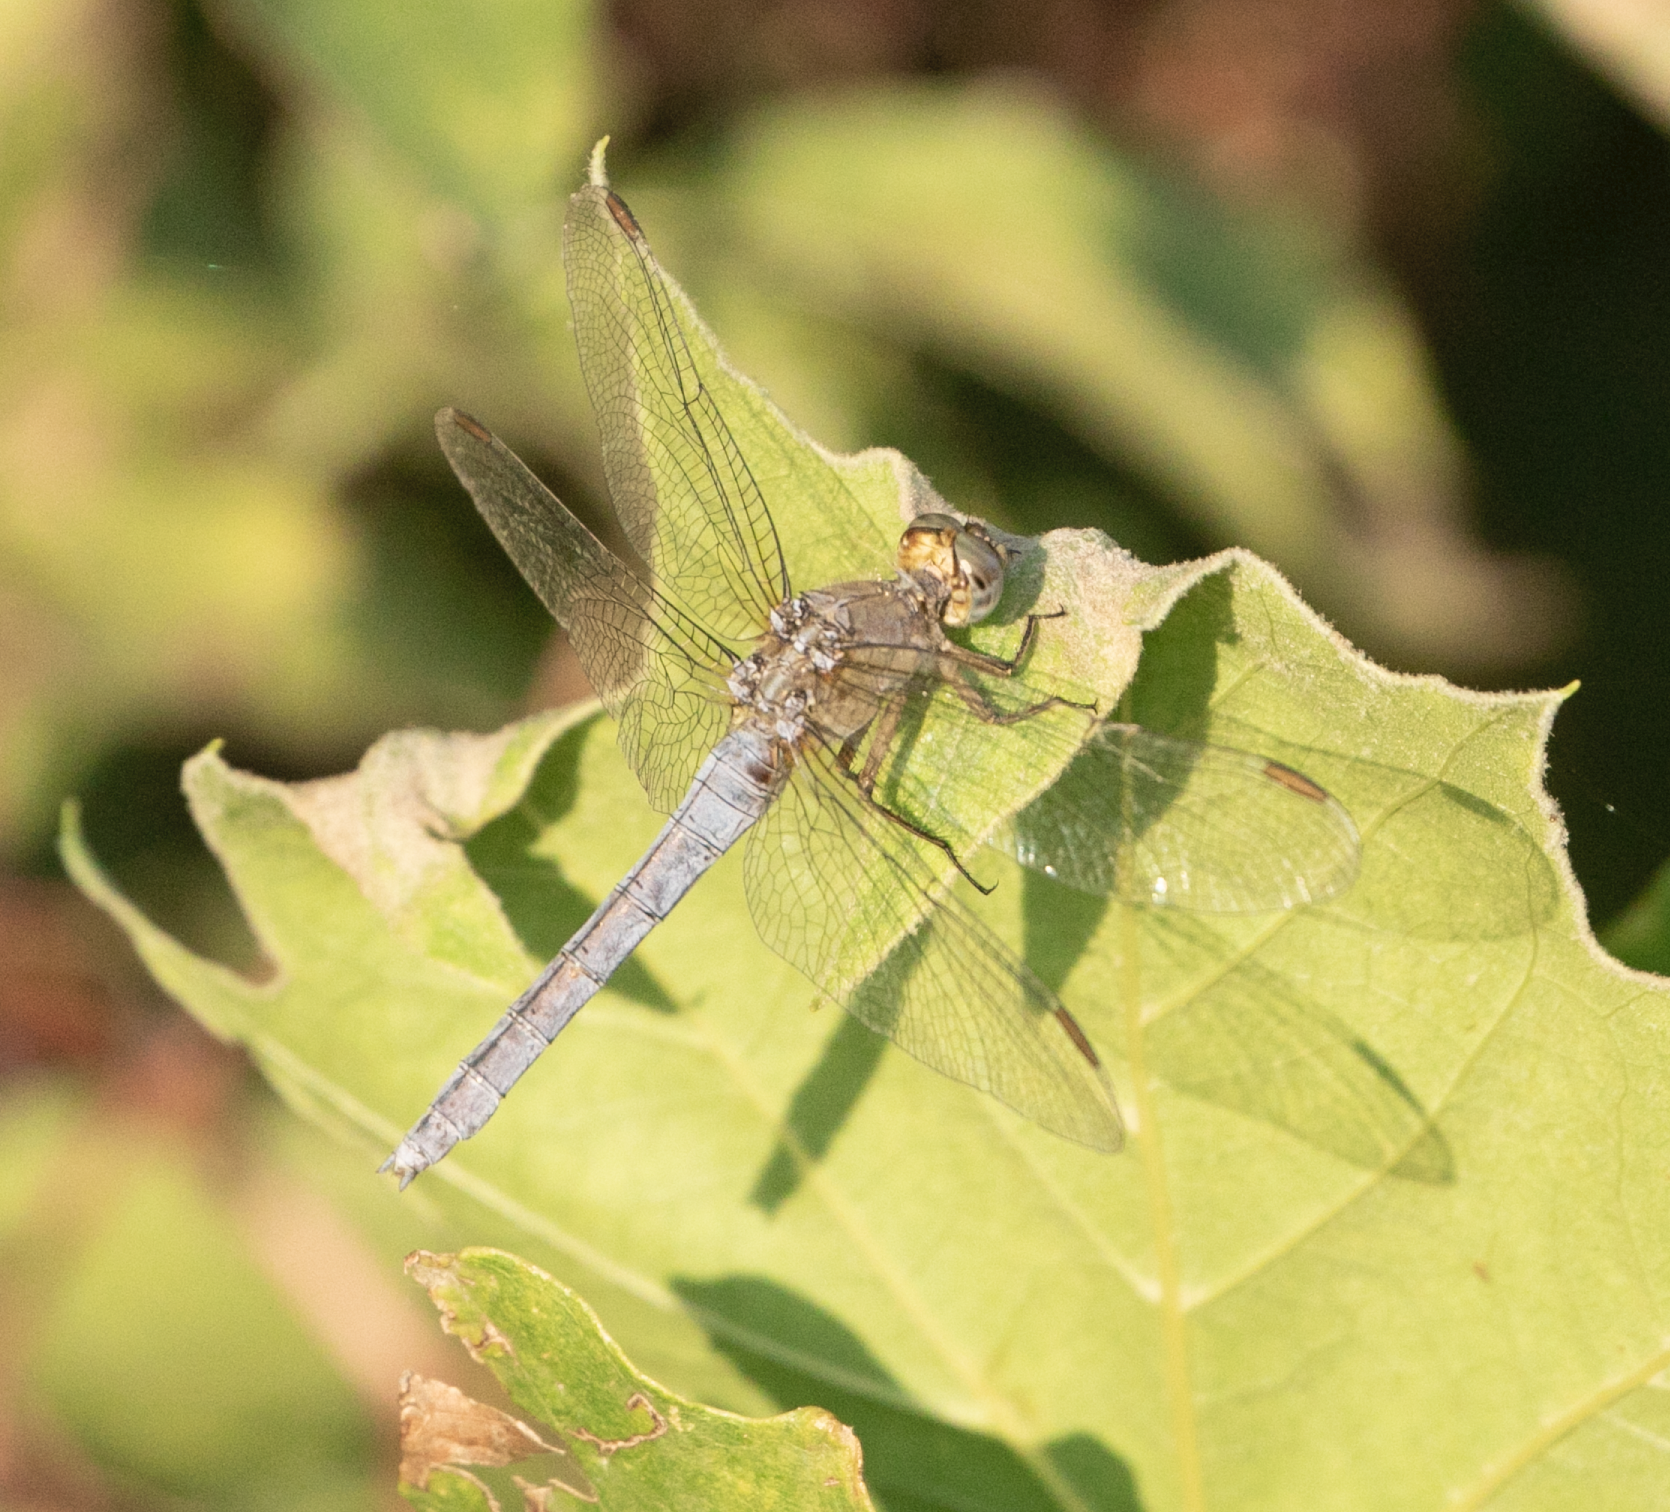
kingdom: Animalia
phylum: Arthropoda
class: Insecta
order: Odonata
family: Libellulidae
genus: Orthetrum
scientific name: Orthetrum coerulescens
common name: Keeled skimmer
